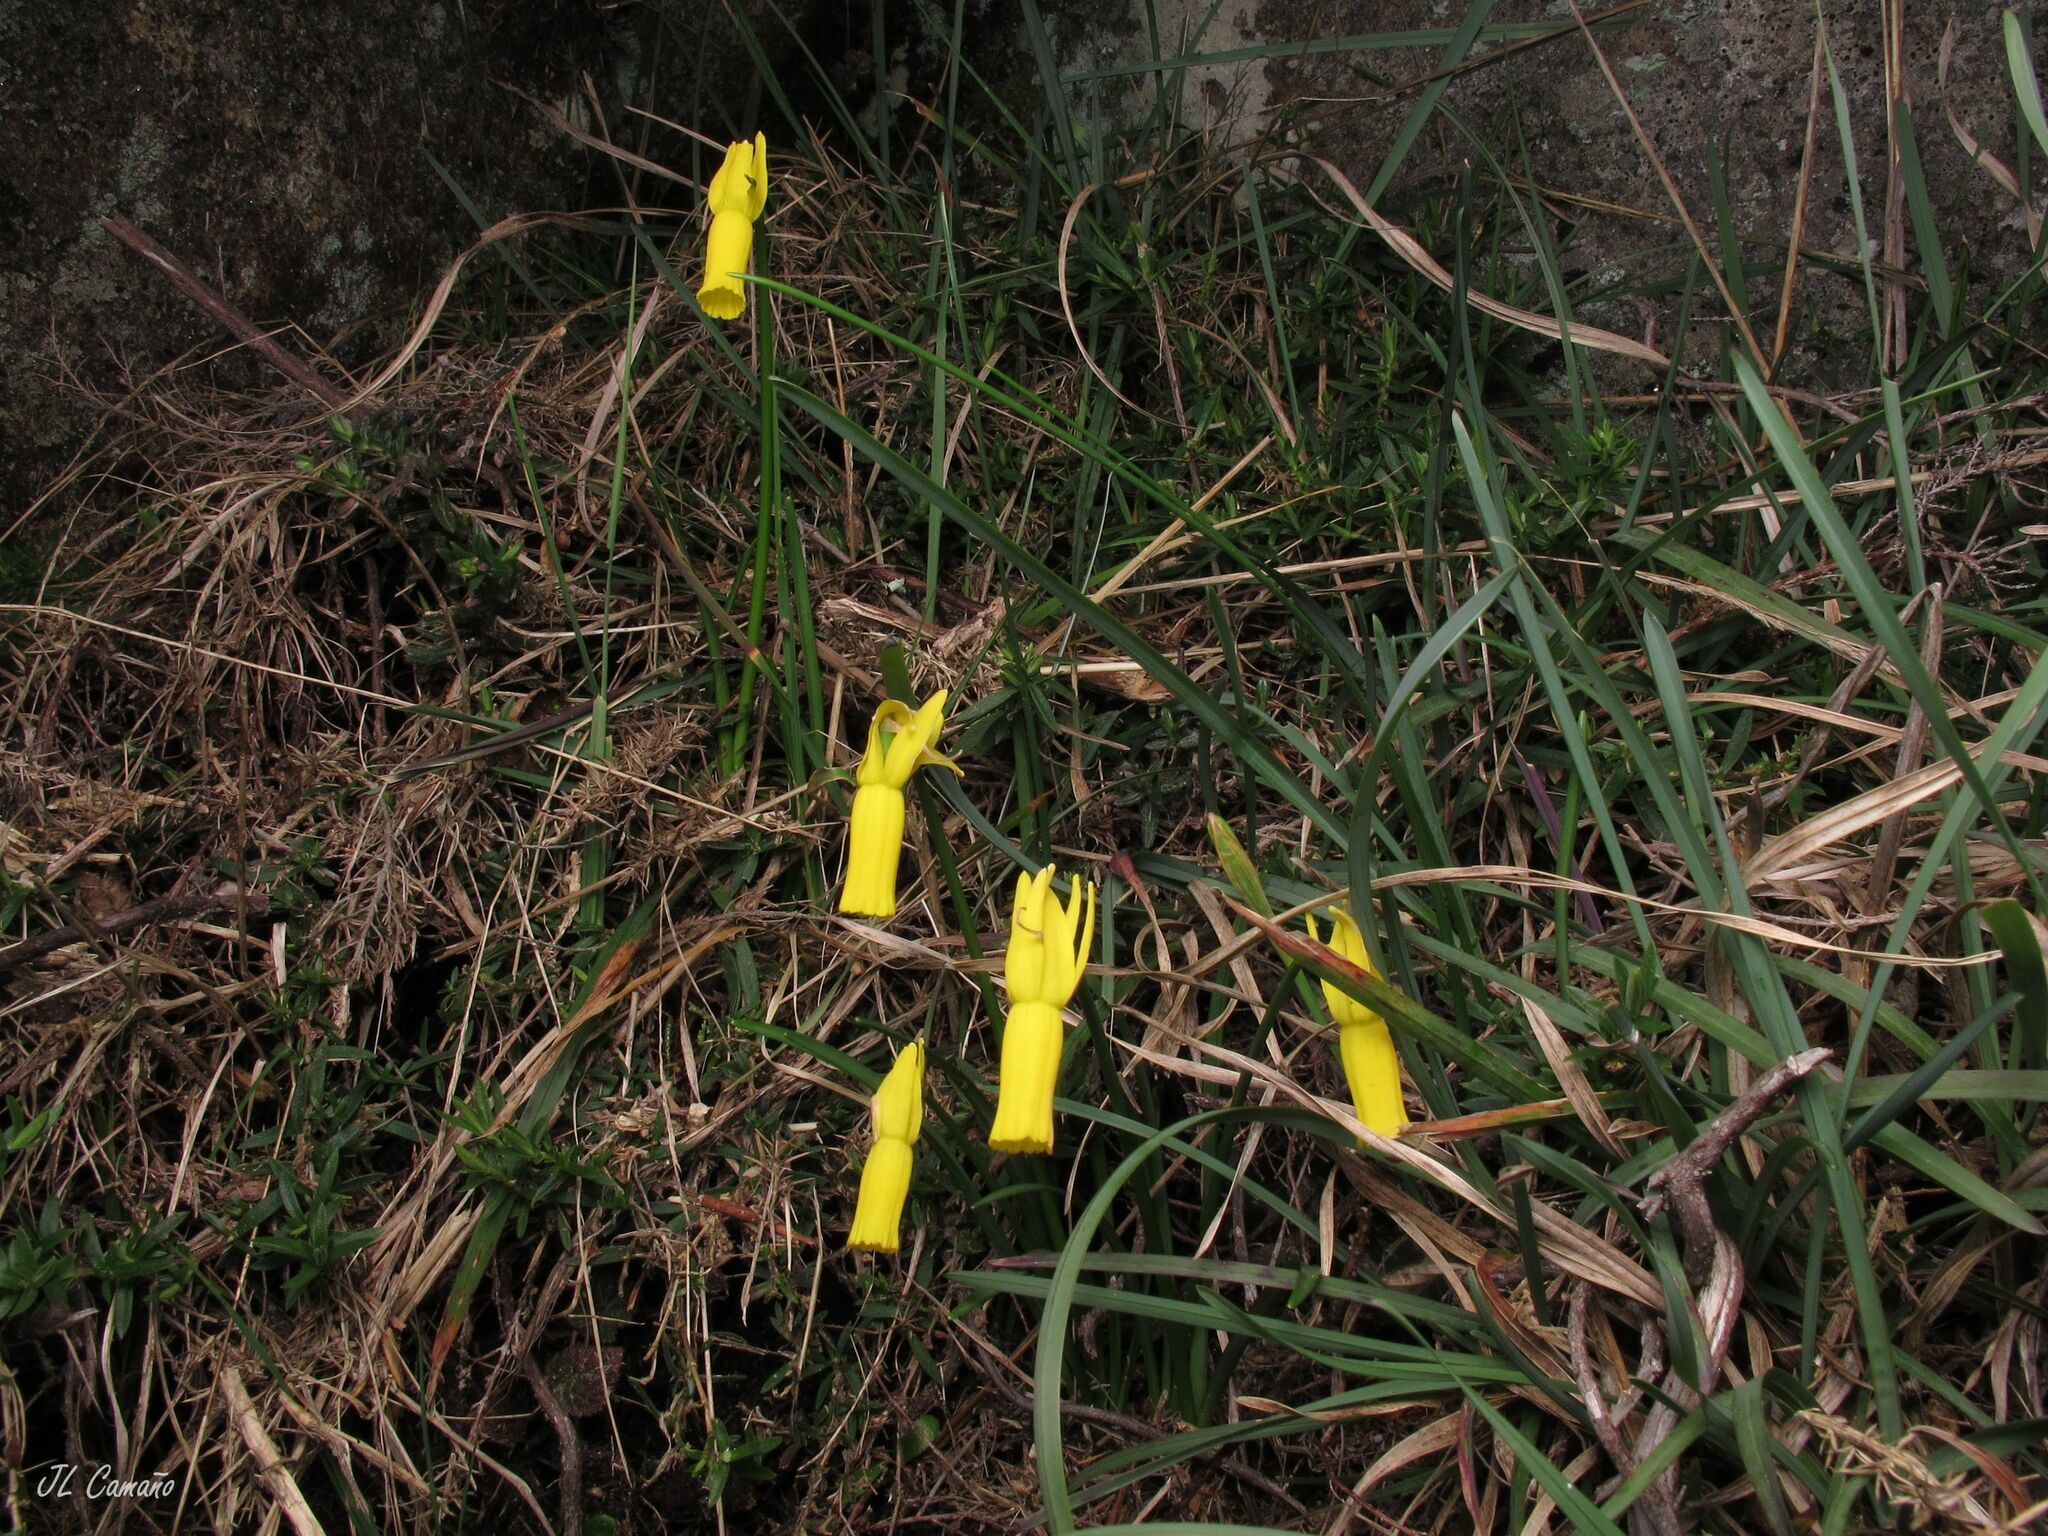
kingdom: Plantae
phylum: Tracheophyta
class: Liliopsida
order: Asparagales
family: Amaryllidaceae
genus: Narcissus
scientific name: Narcissus cyclamineus
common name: Cyclamen-flowered daffodil
